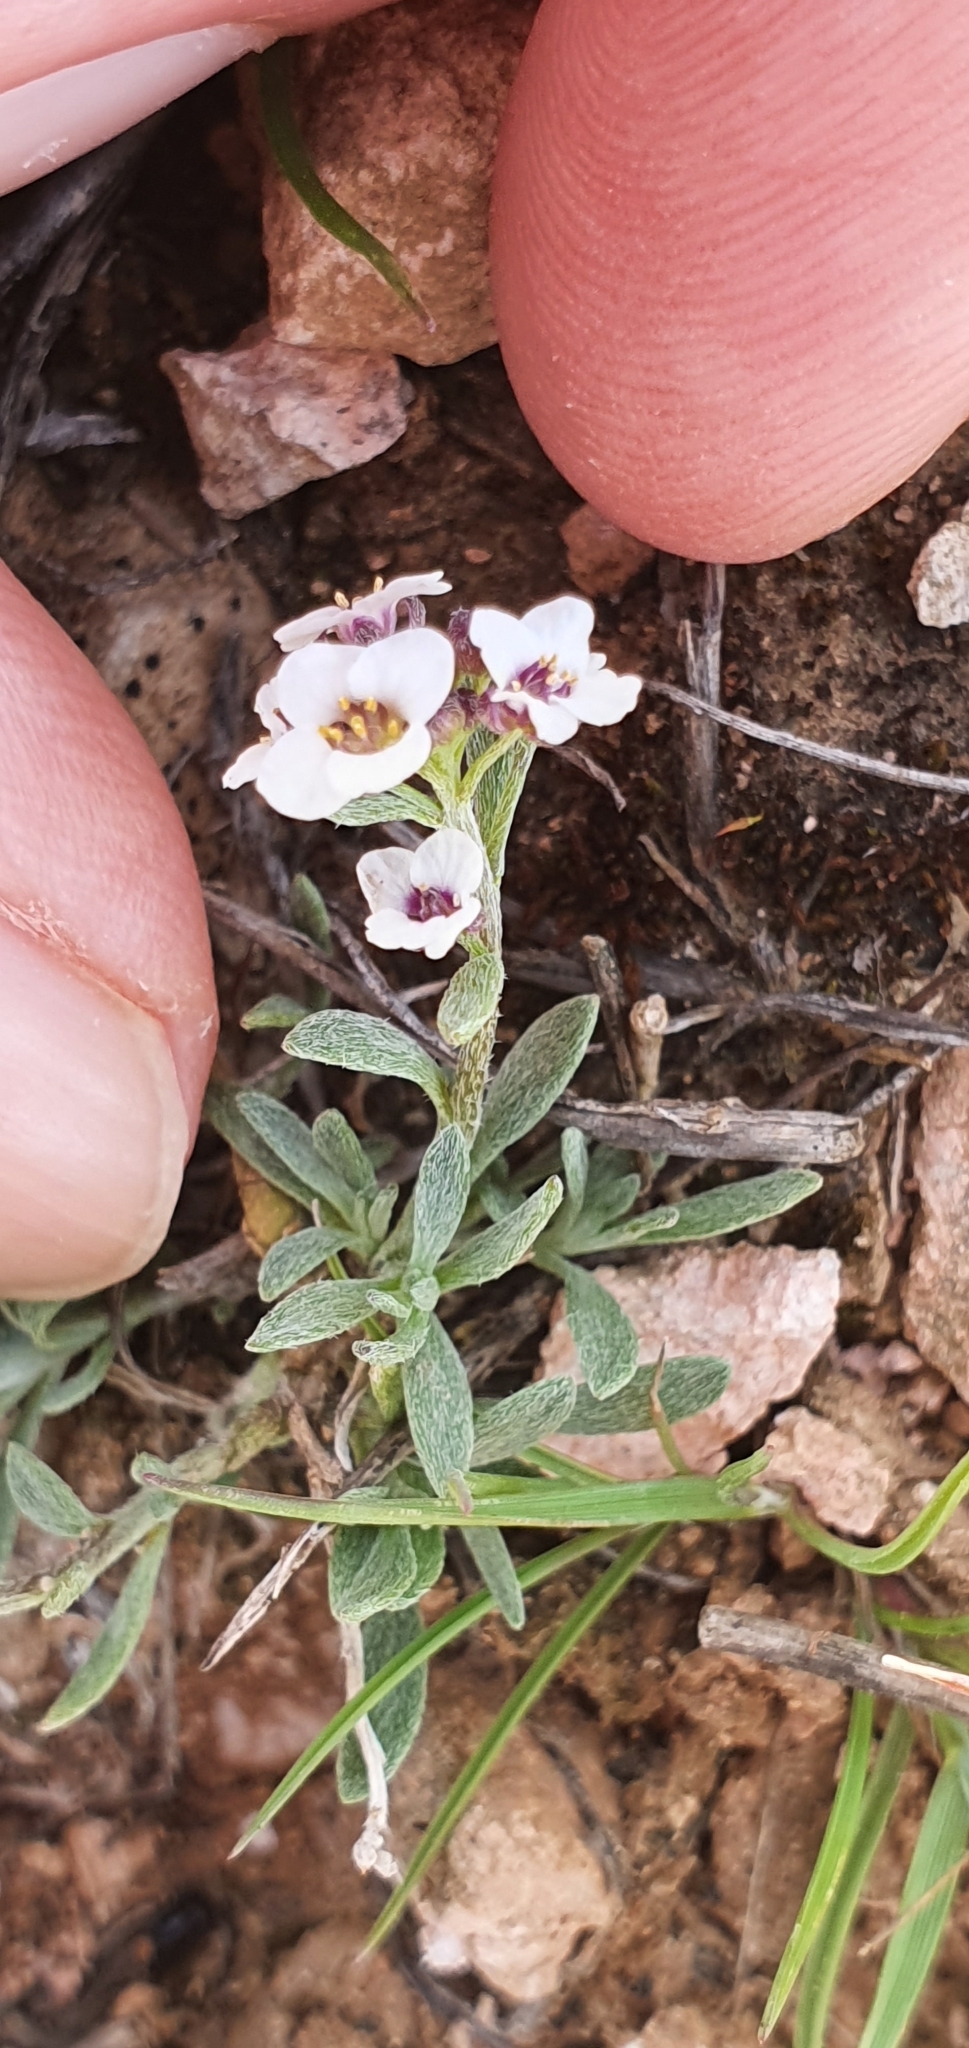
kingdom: Plantae
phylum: Tracheophyta
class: Magnoliopsida
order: Brassicales
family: Brassicaceae
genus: Lobularia
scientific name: Lobularia maritima
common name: Sweet alison
